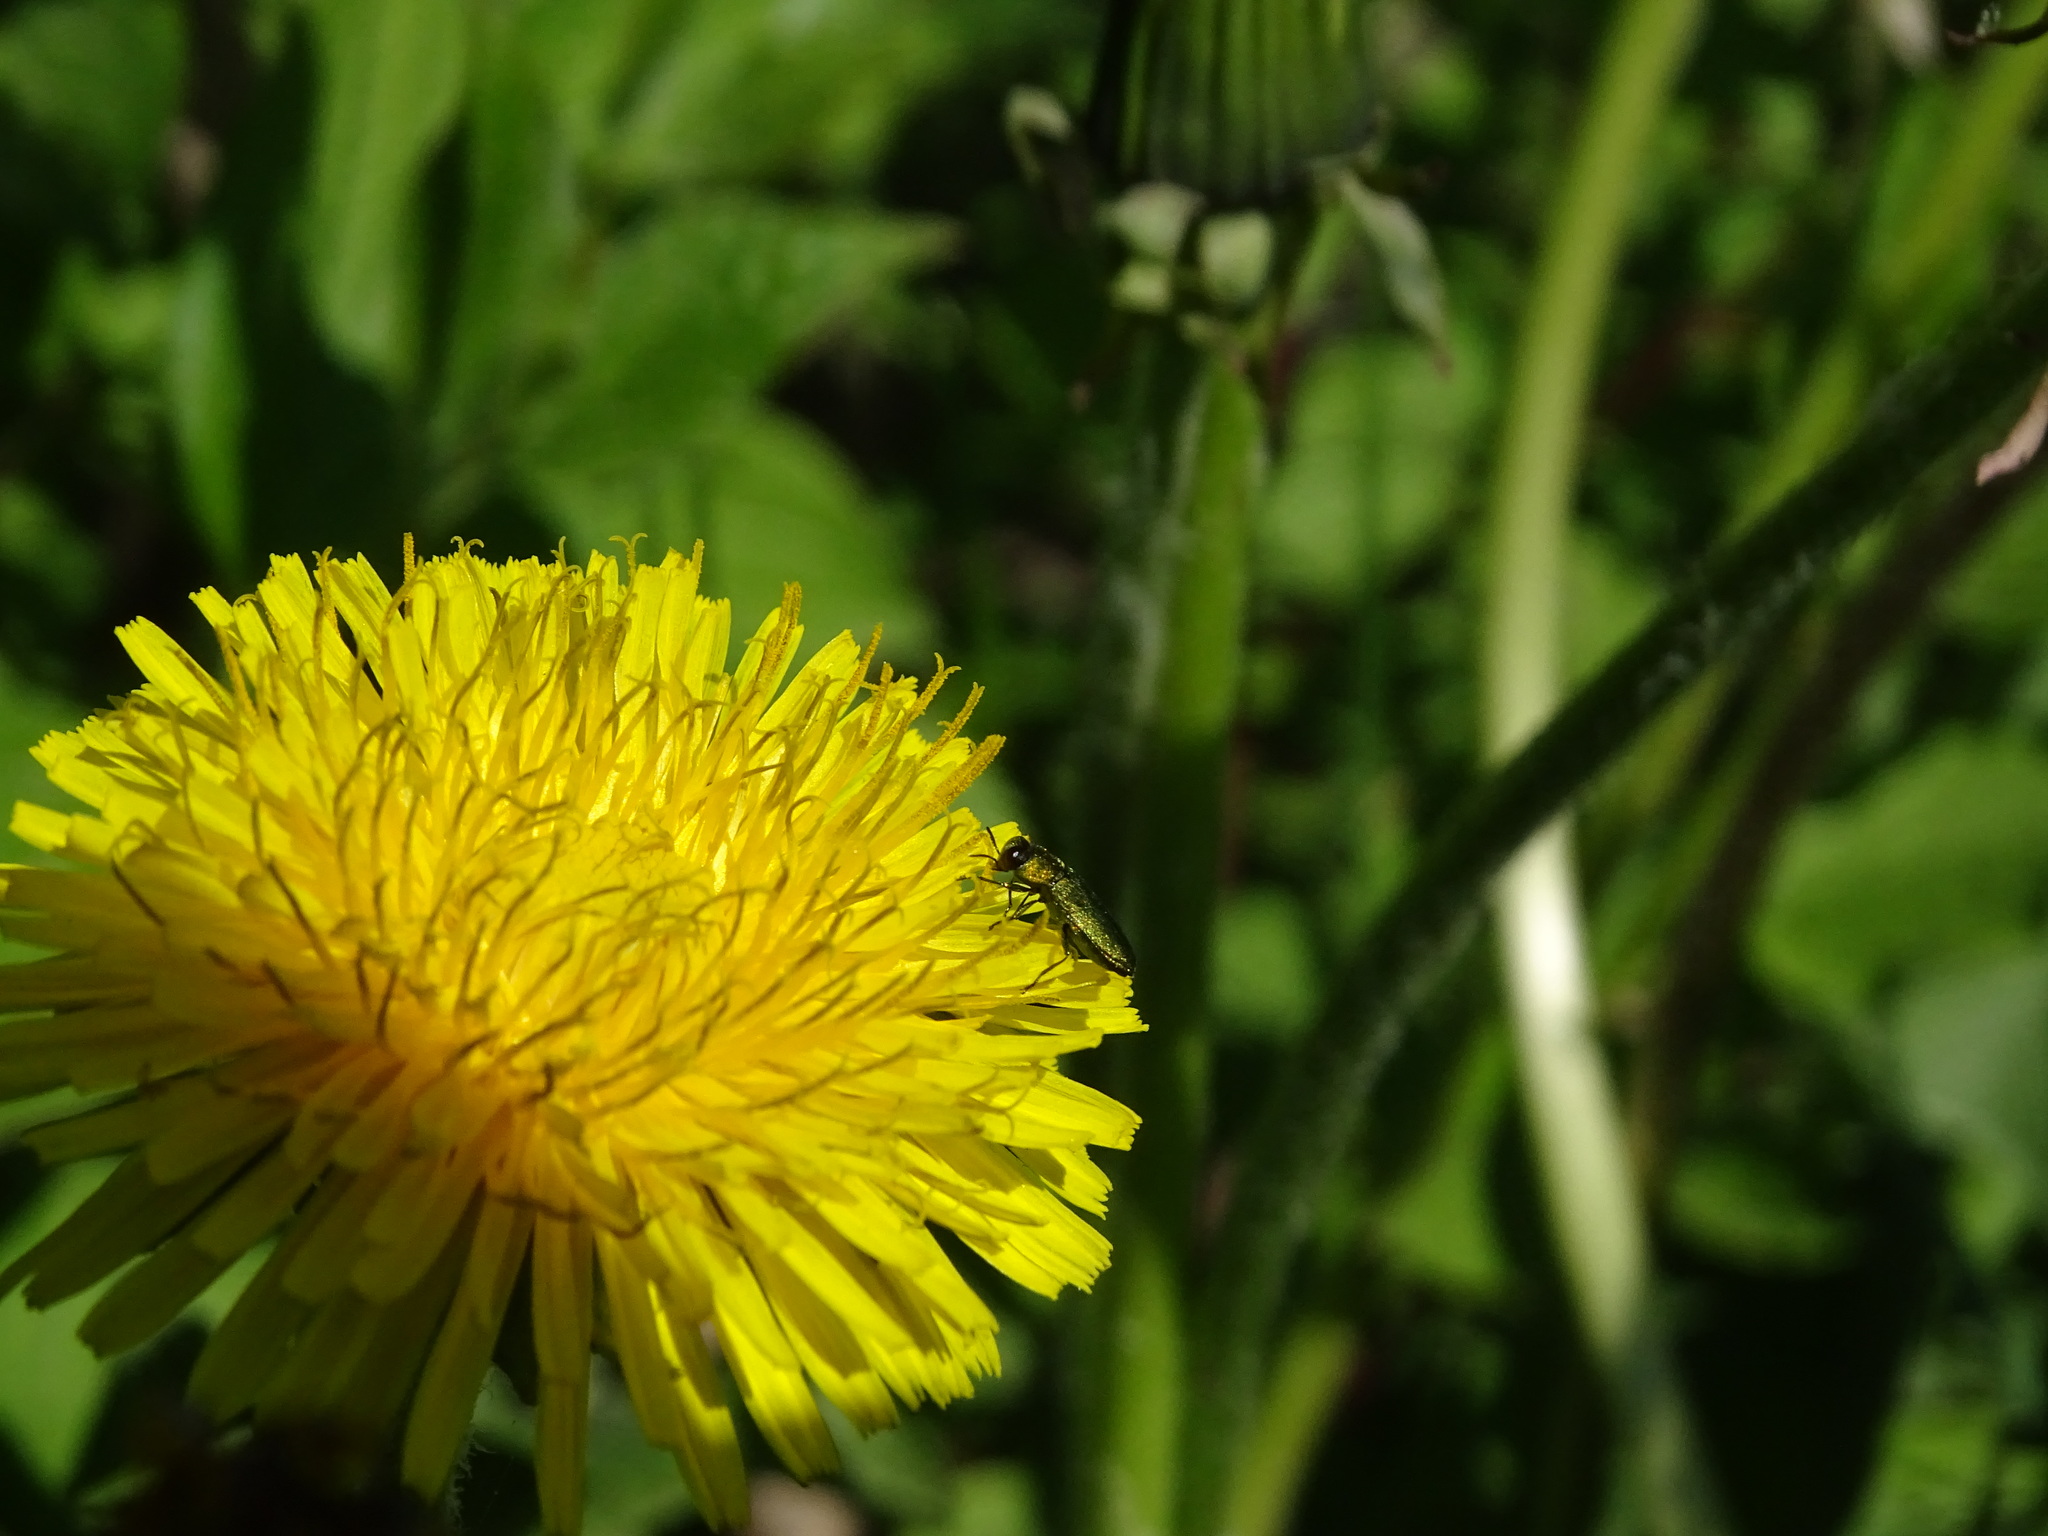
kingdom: Animalia
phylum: Arthropoda
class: Insecta
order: Coleoptera
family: Buprestidae
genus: Anthaxia
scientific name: Anthaxia nitidula
